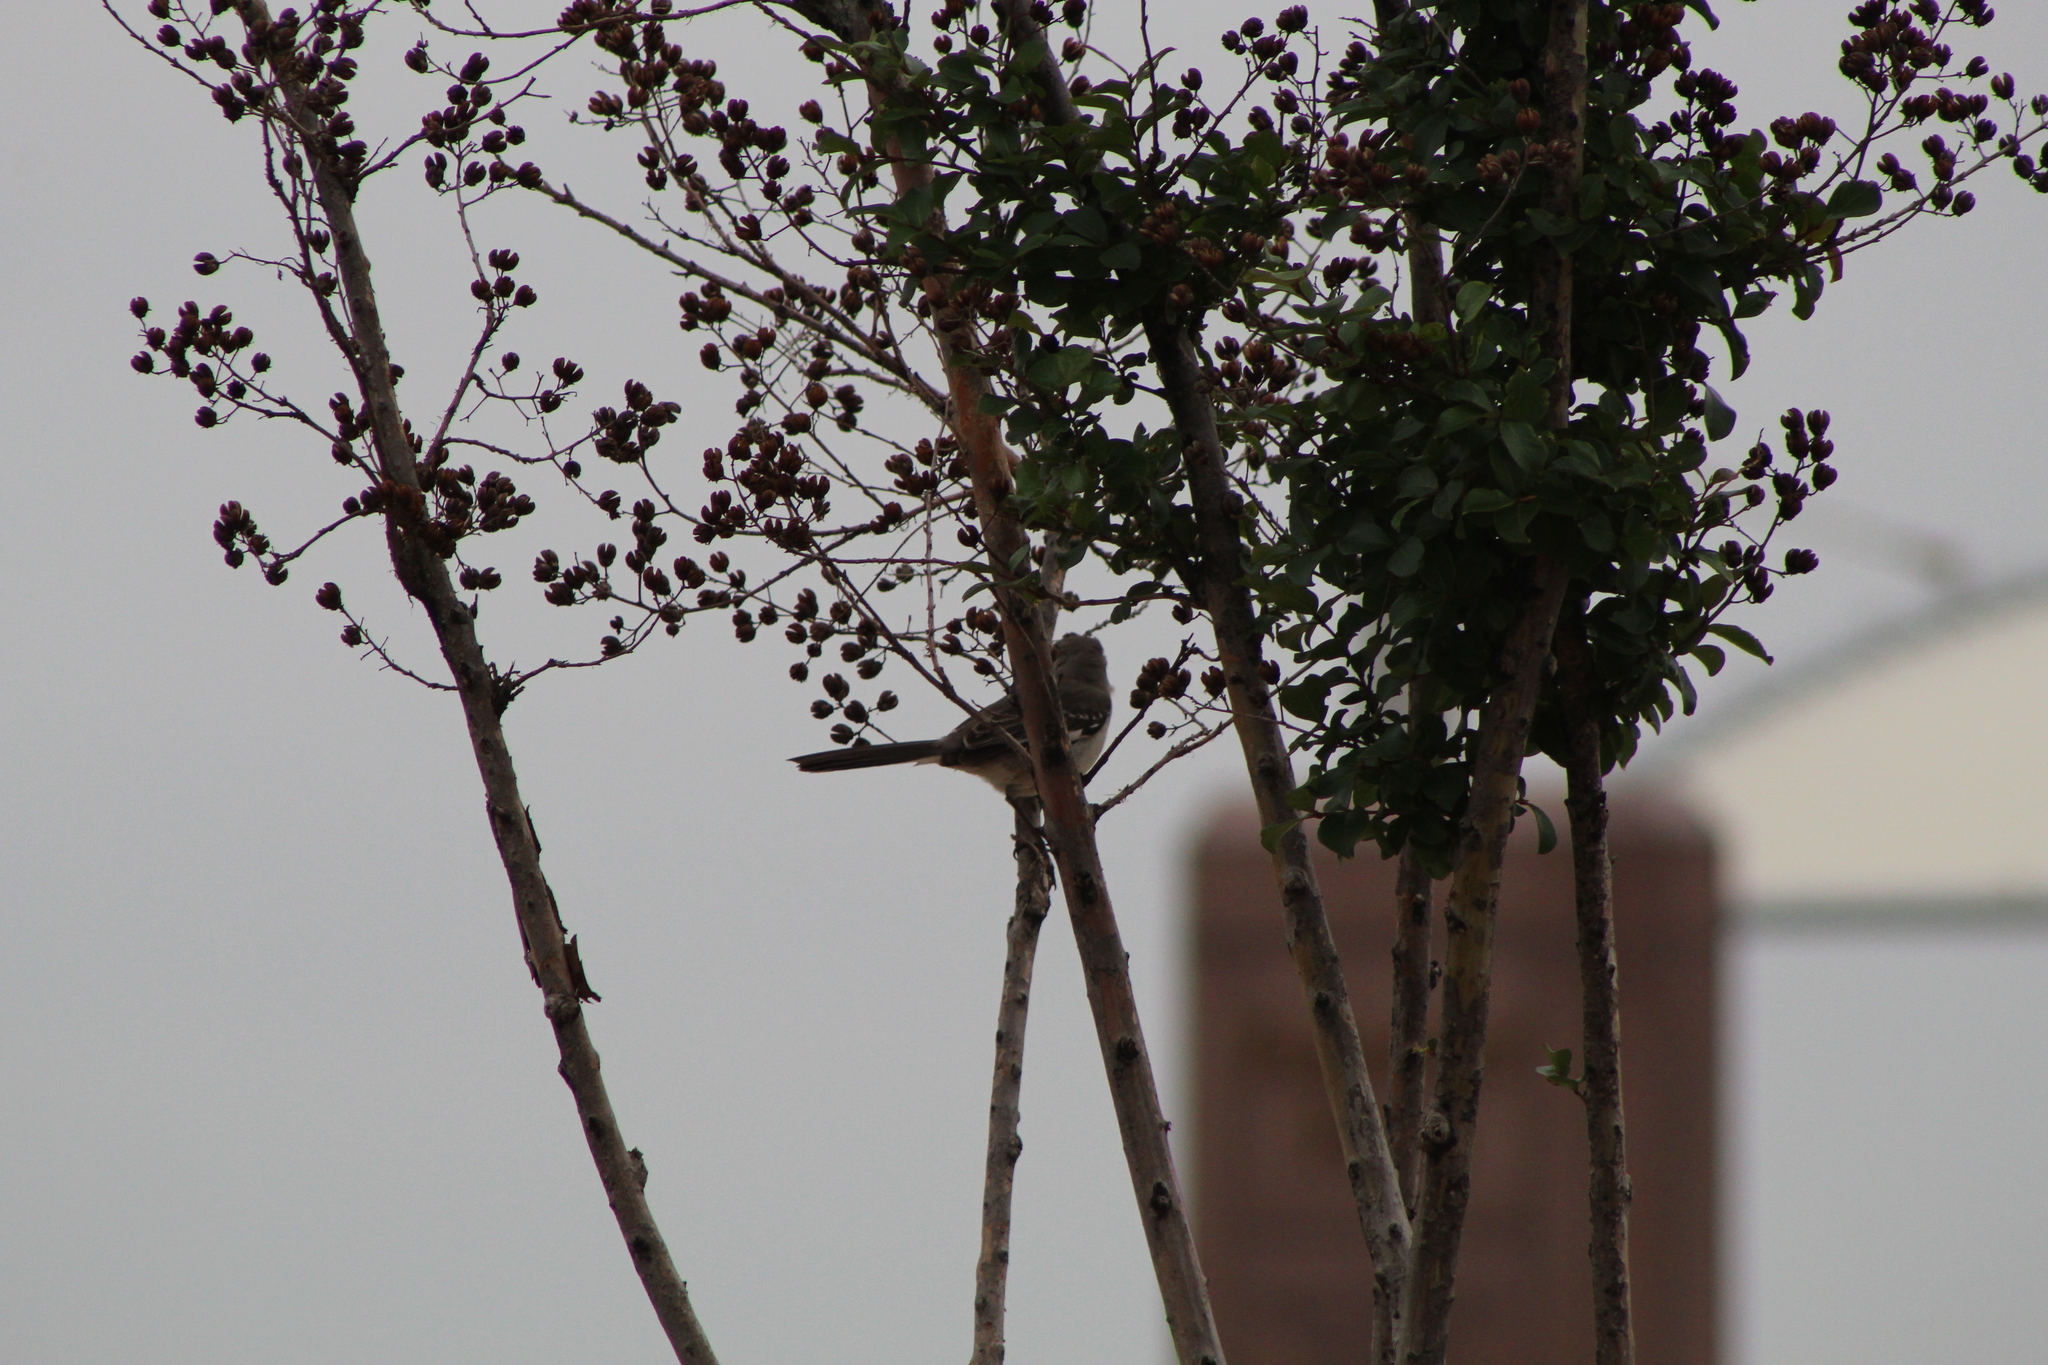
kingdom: Animalia
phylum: Chordata
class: Aves
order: Passeriformes
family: Mimidae
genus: Mimus
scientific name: Mimus polyglottos
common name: Northern mockingbird
